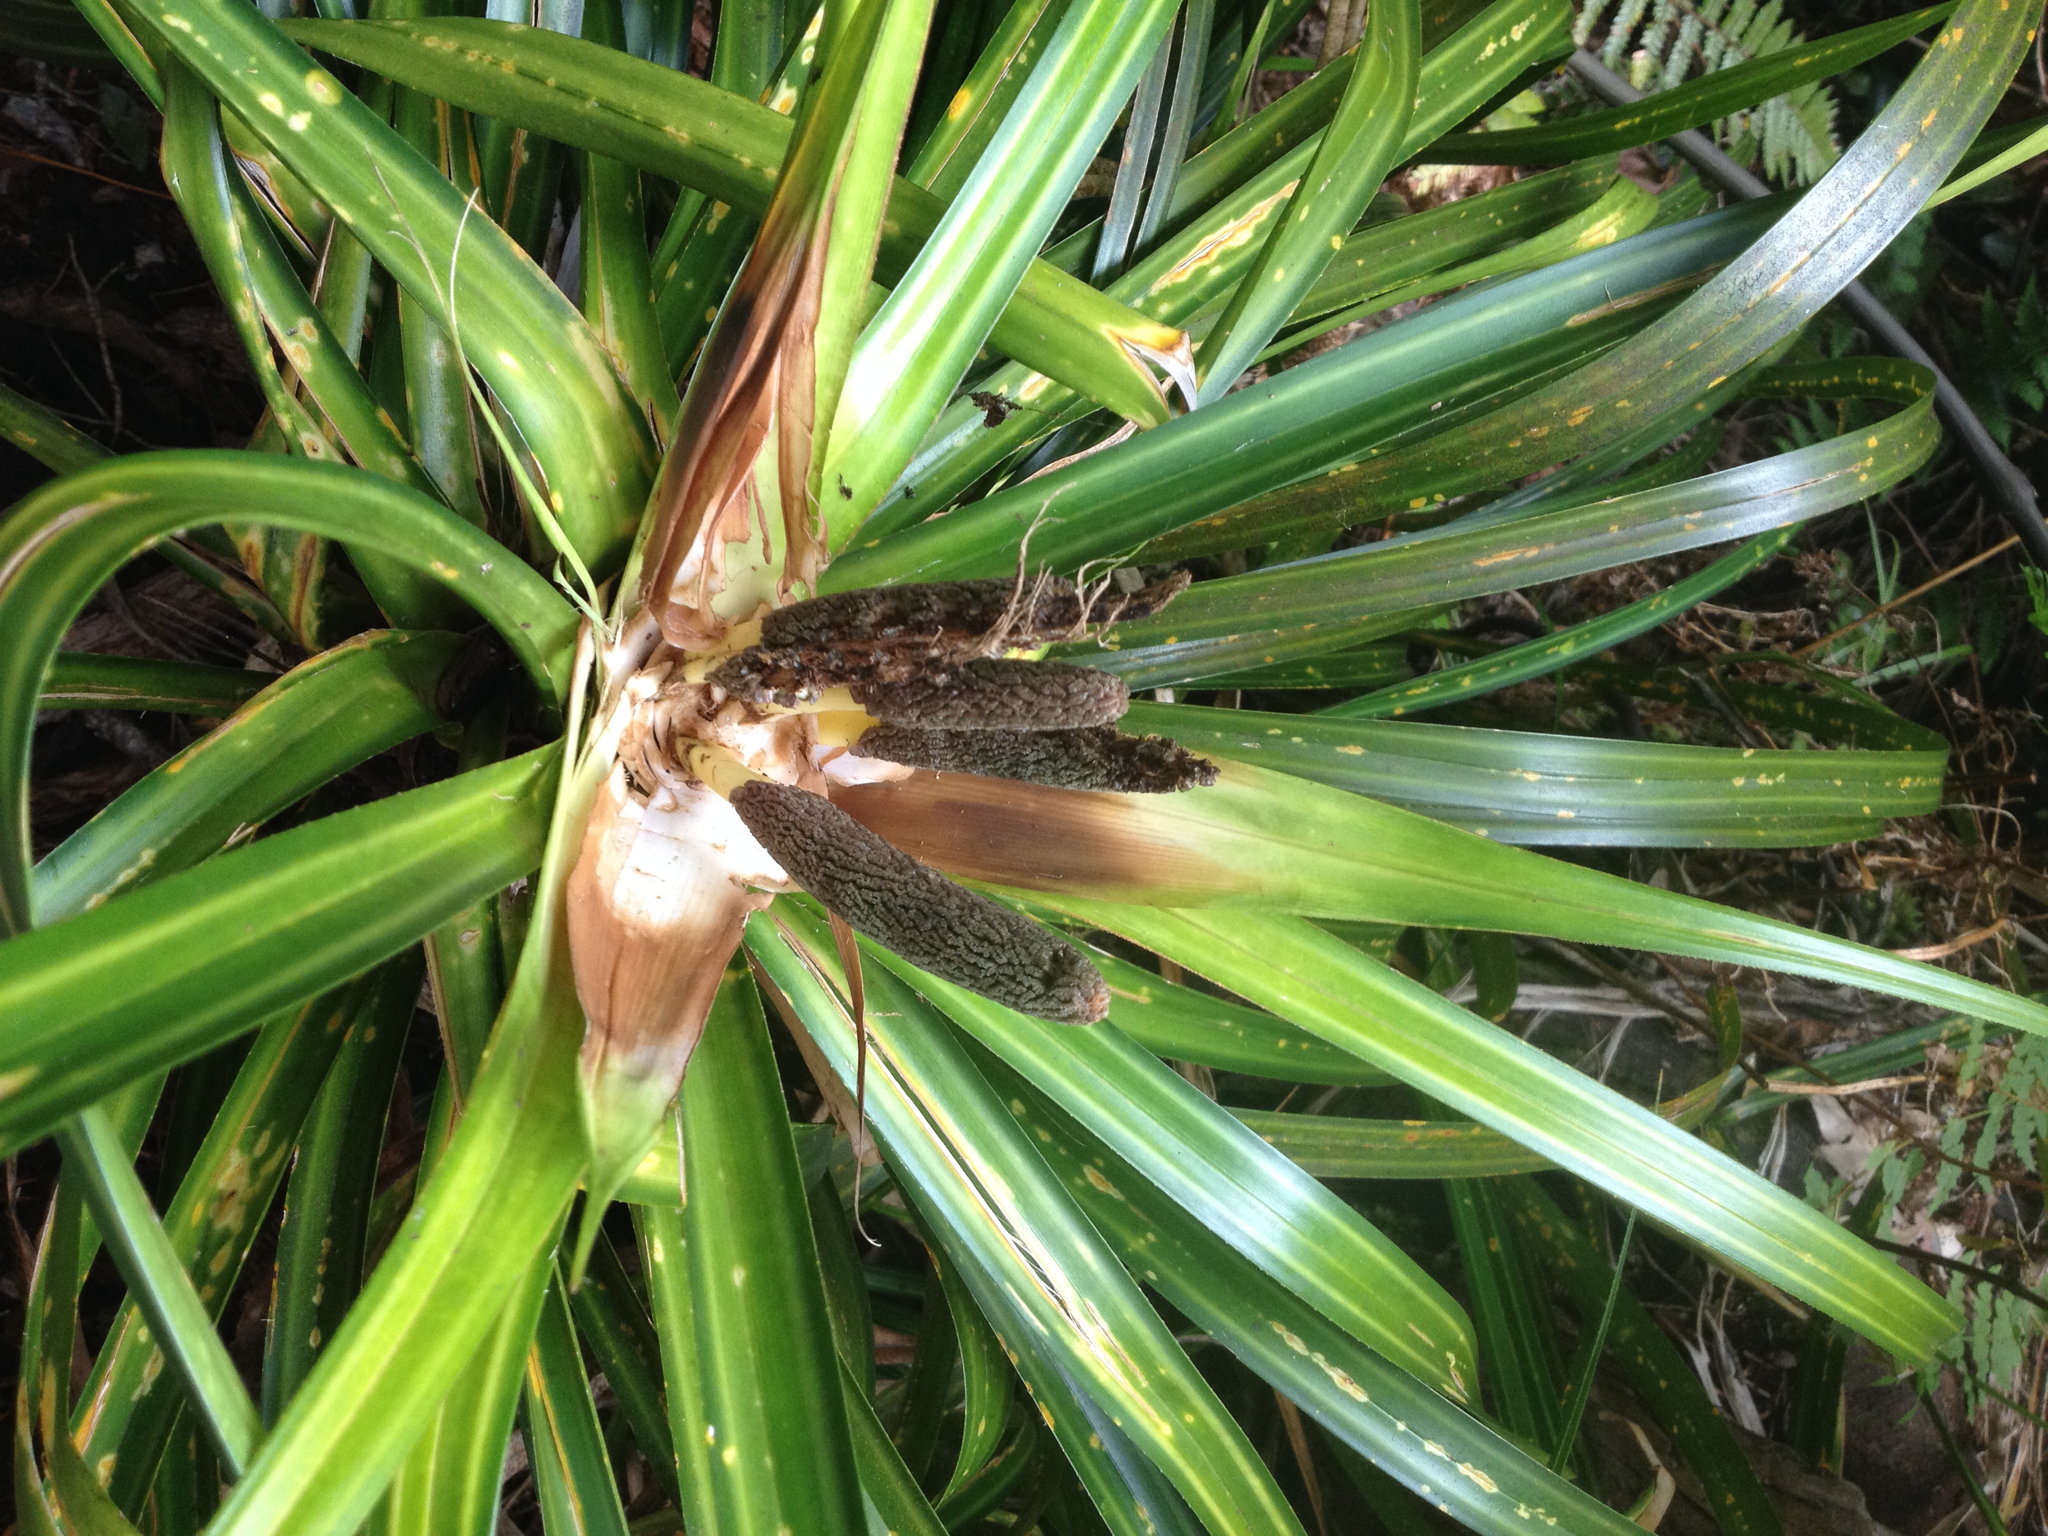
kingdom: Plantae
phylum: Tracheophyta
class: Liliopsida
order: Pandanales
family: Pandanaceae
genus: Freycinetia
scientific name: Freycinetia banksii
